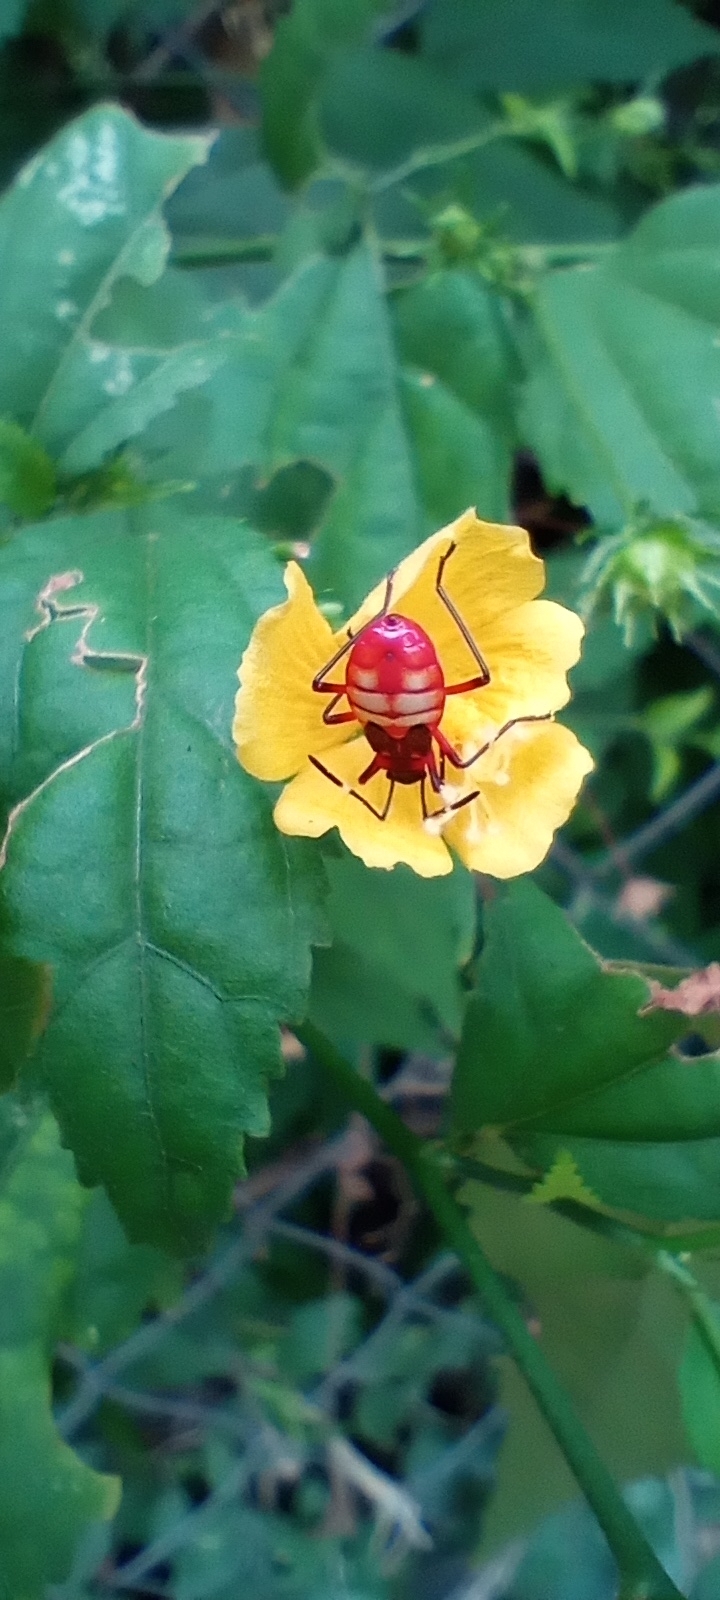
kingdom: Animalia
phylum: Arthropoda
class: Insecta
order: Hemiptera
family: Pyrrhocoridae
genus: Dysdercus
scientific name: Dysdercus albofasciatus
